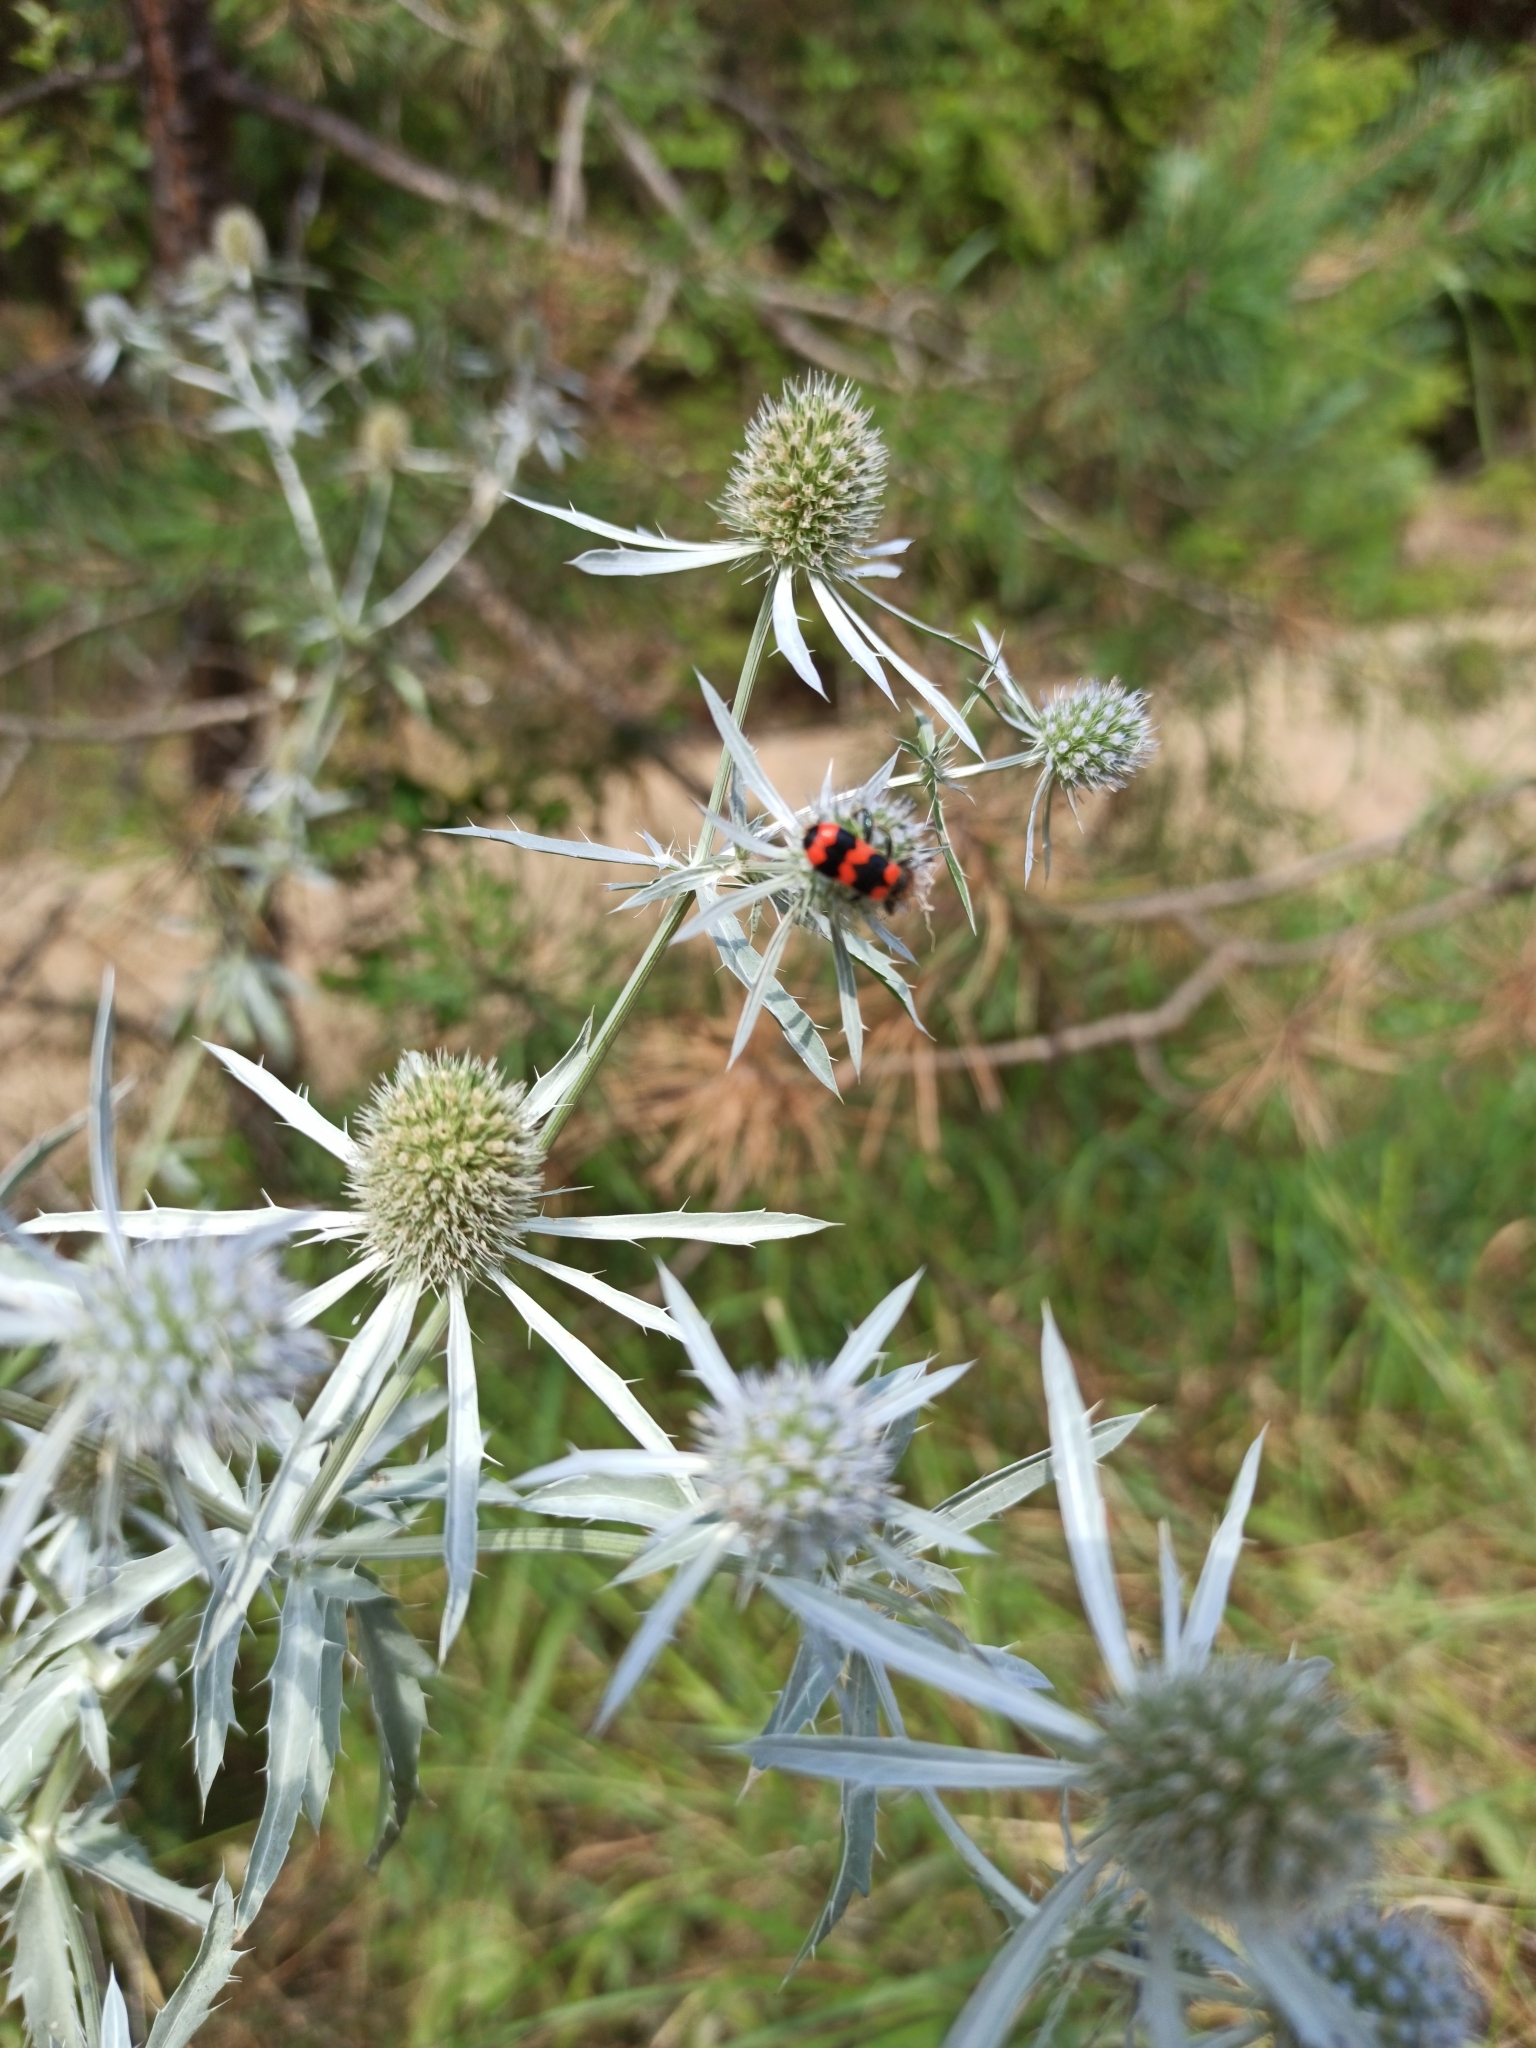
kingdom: Animalia
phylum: Arthropoda
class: Insecta
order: Coleoptera
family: Cleridae
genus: Trichodes
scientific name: Trichodes apiarius
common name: Bee-eating beetle
